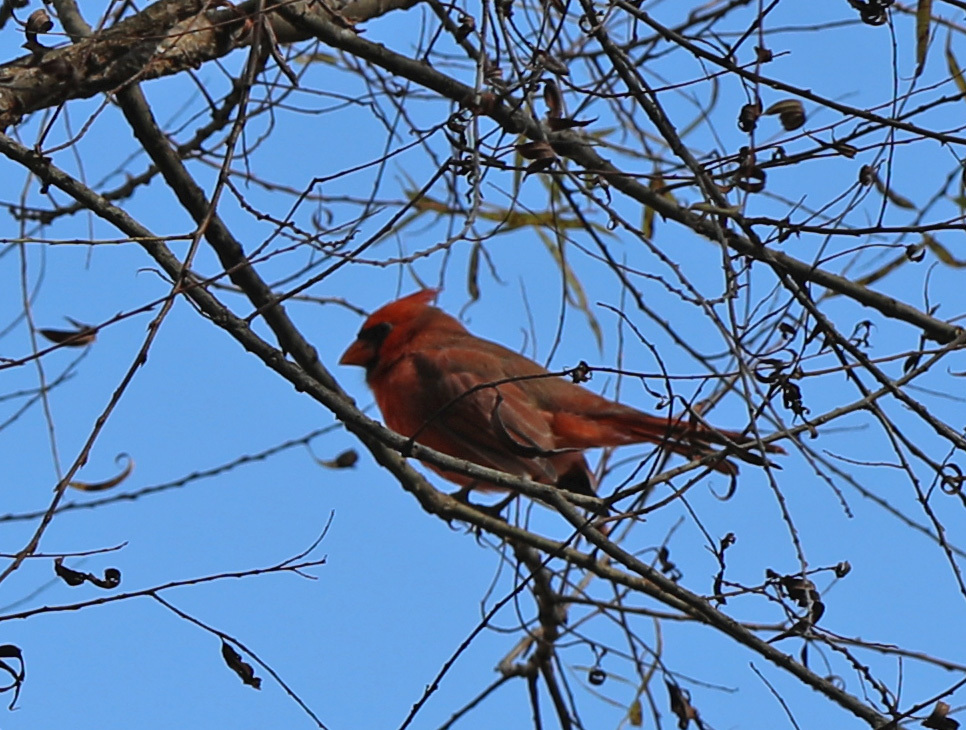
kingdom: Animalia
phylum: Chordata
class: Aves
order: Passeriformes
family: Cardinalidae
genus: Cardinalis
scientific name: Cardinalis cardinalis
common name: Northern cardinal
